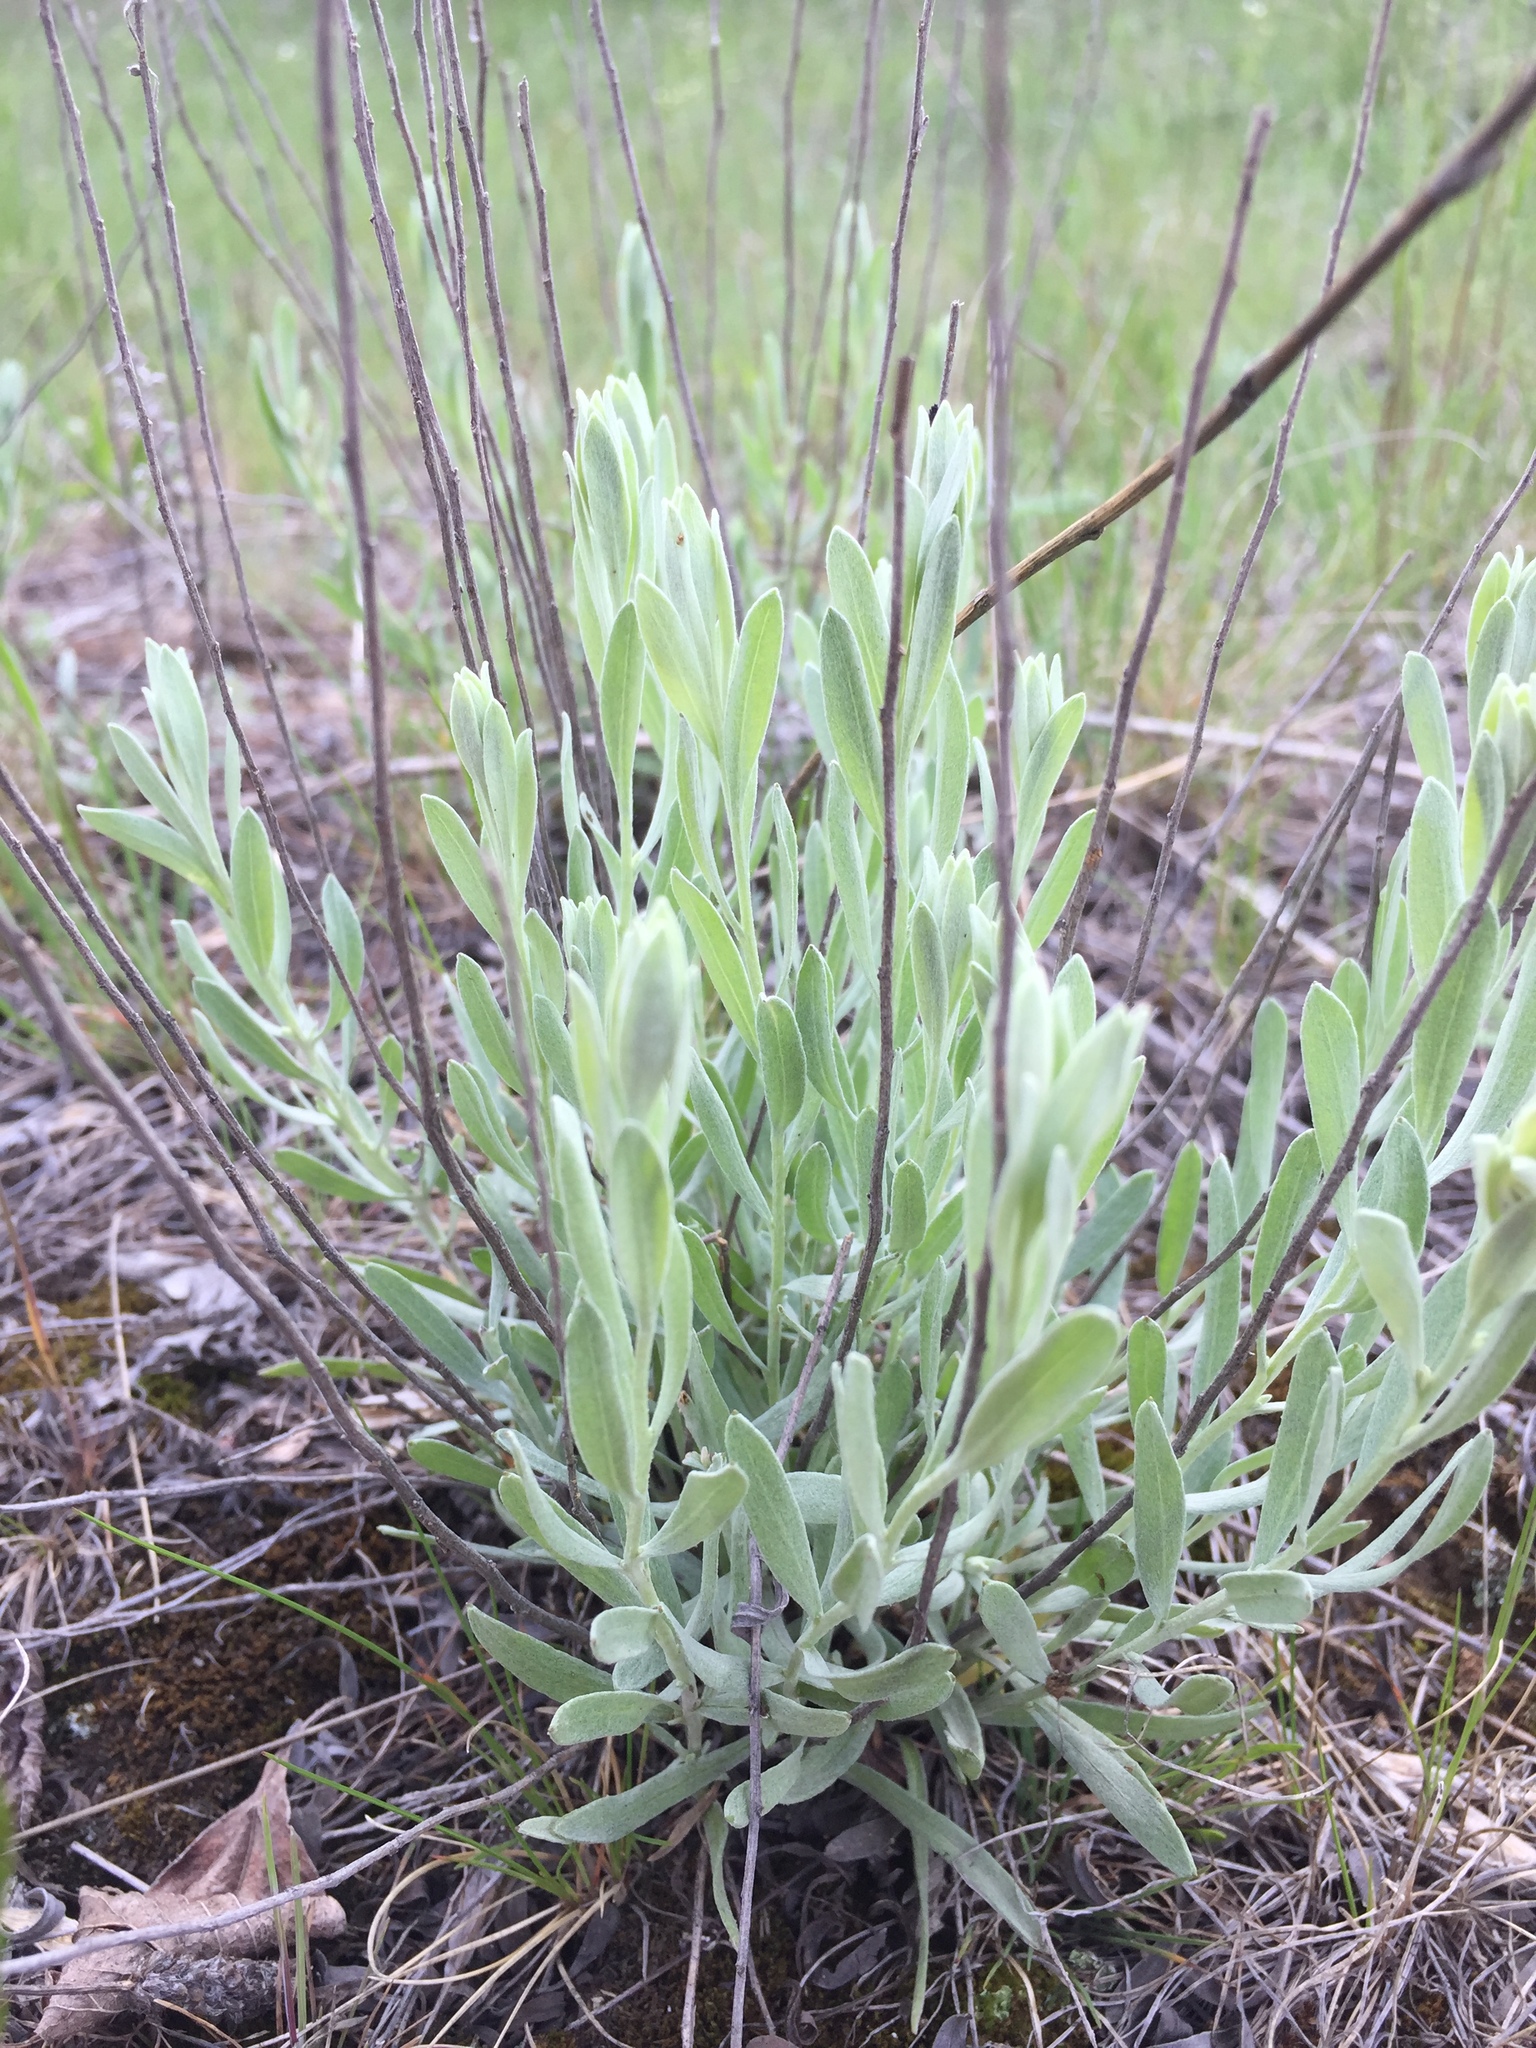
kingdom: Plantae
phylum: Tracheophyta
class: Magnoliopsida
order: Asterales
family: Asteraceae
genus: Helichrysum
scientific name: Helichrysum arenarium
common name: Strawflower
